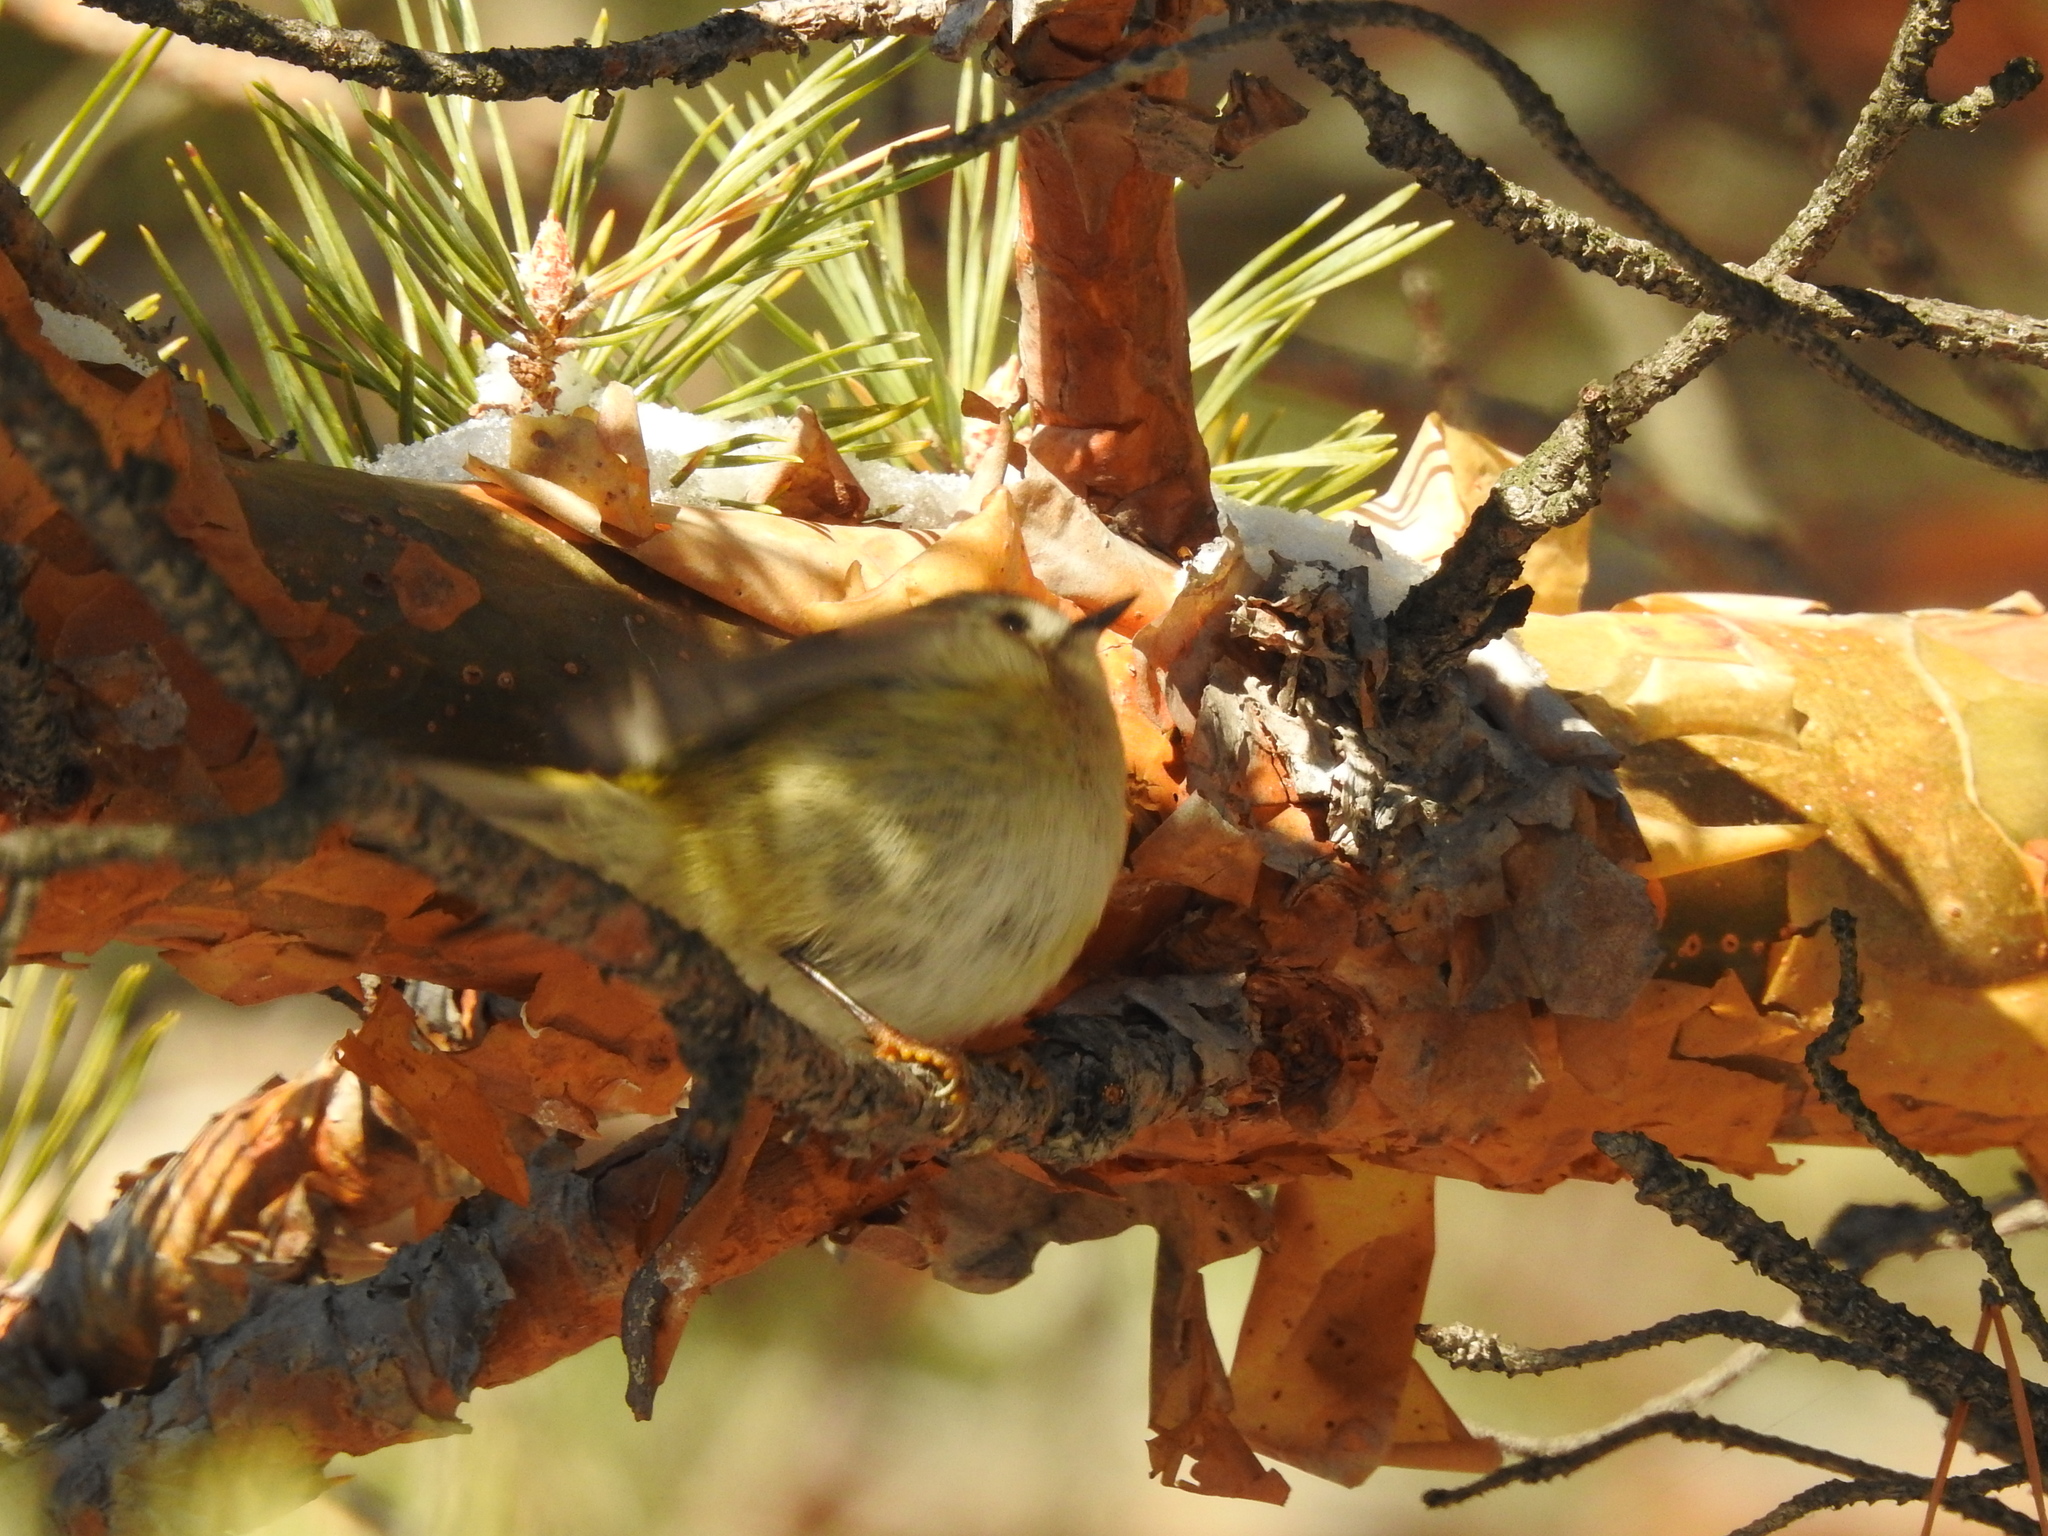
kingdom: Animalia
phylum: Chordata
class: Aves
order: Passeriformes
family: Regulidae
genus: Regulus
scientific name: Regulus regulus
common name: Goldcrest
